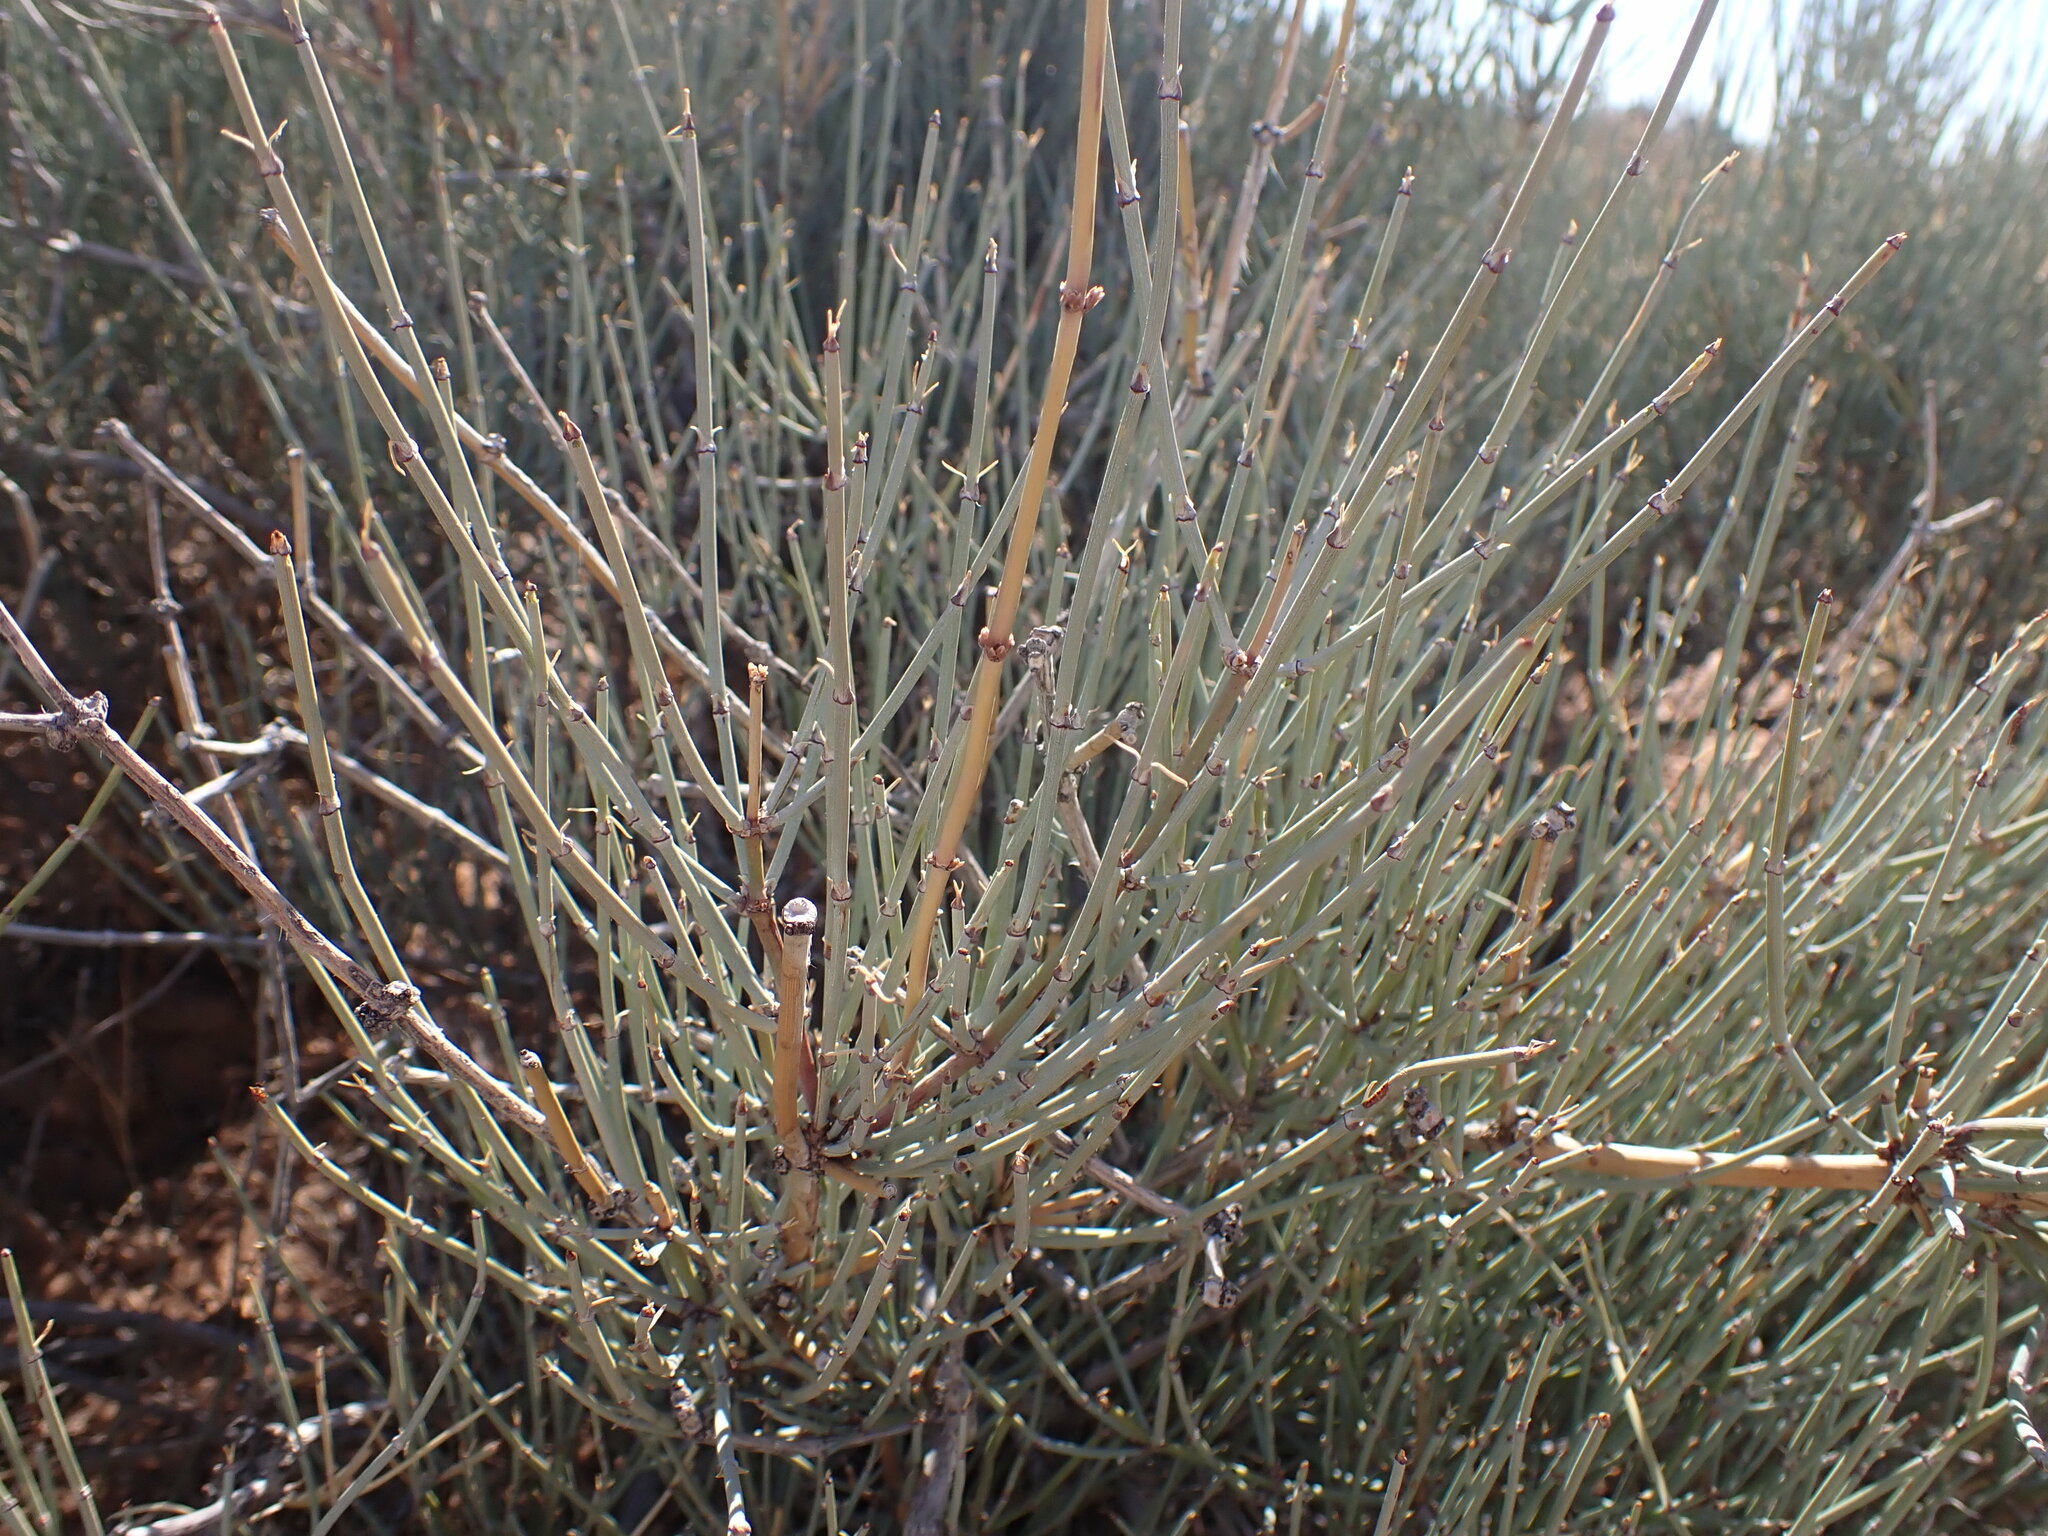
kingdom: Plantae
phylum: Tracheophyta
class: Gnetopsida
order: Ephedrales
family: Ephedraceae
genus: Ephedra
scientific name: Ephedra nevadensis
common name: Gray ephedra
